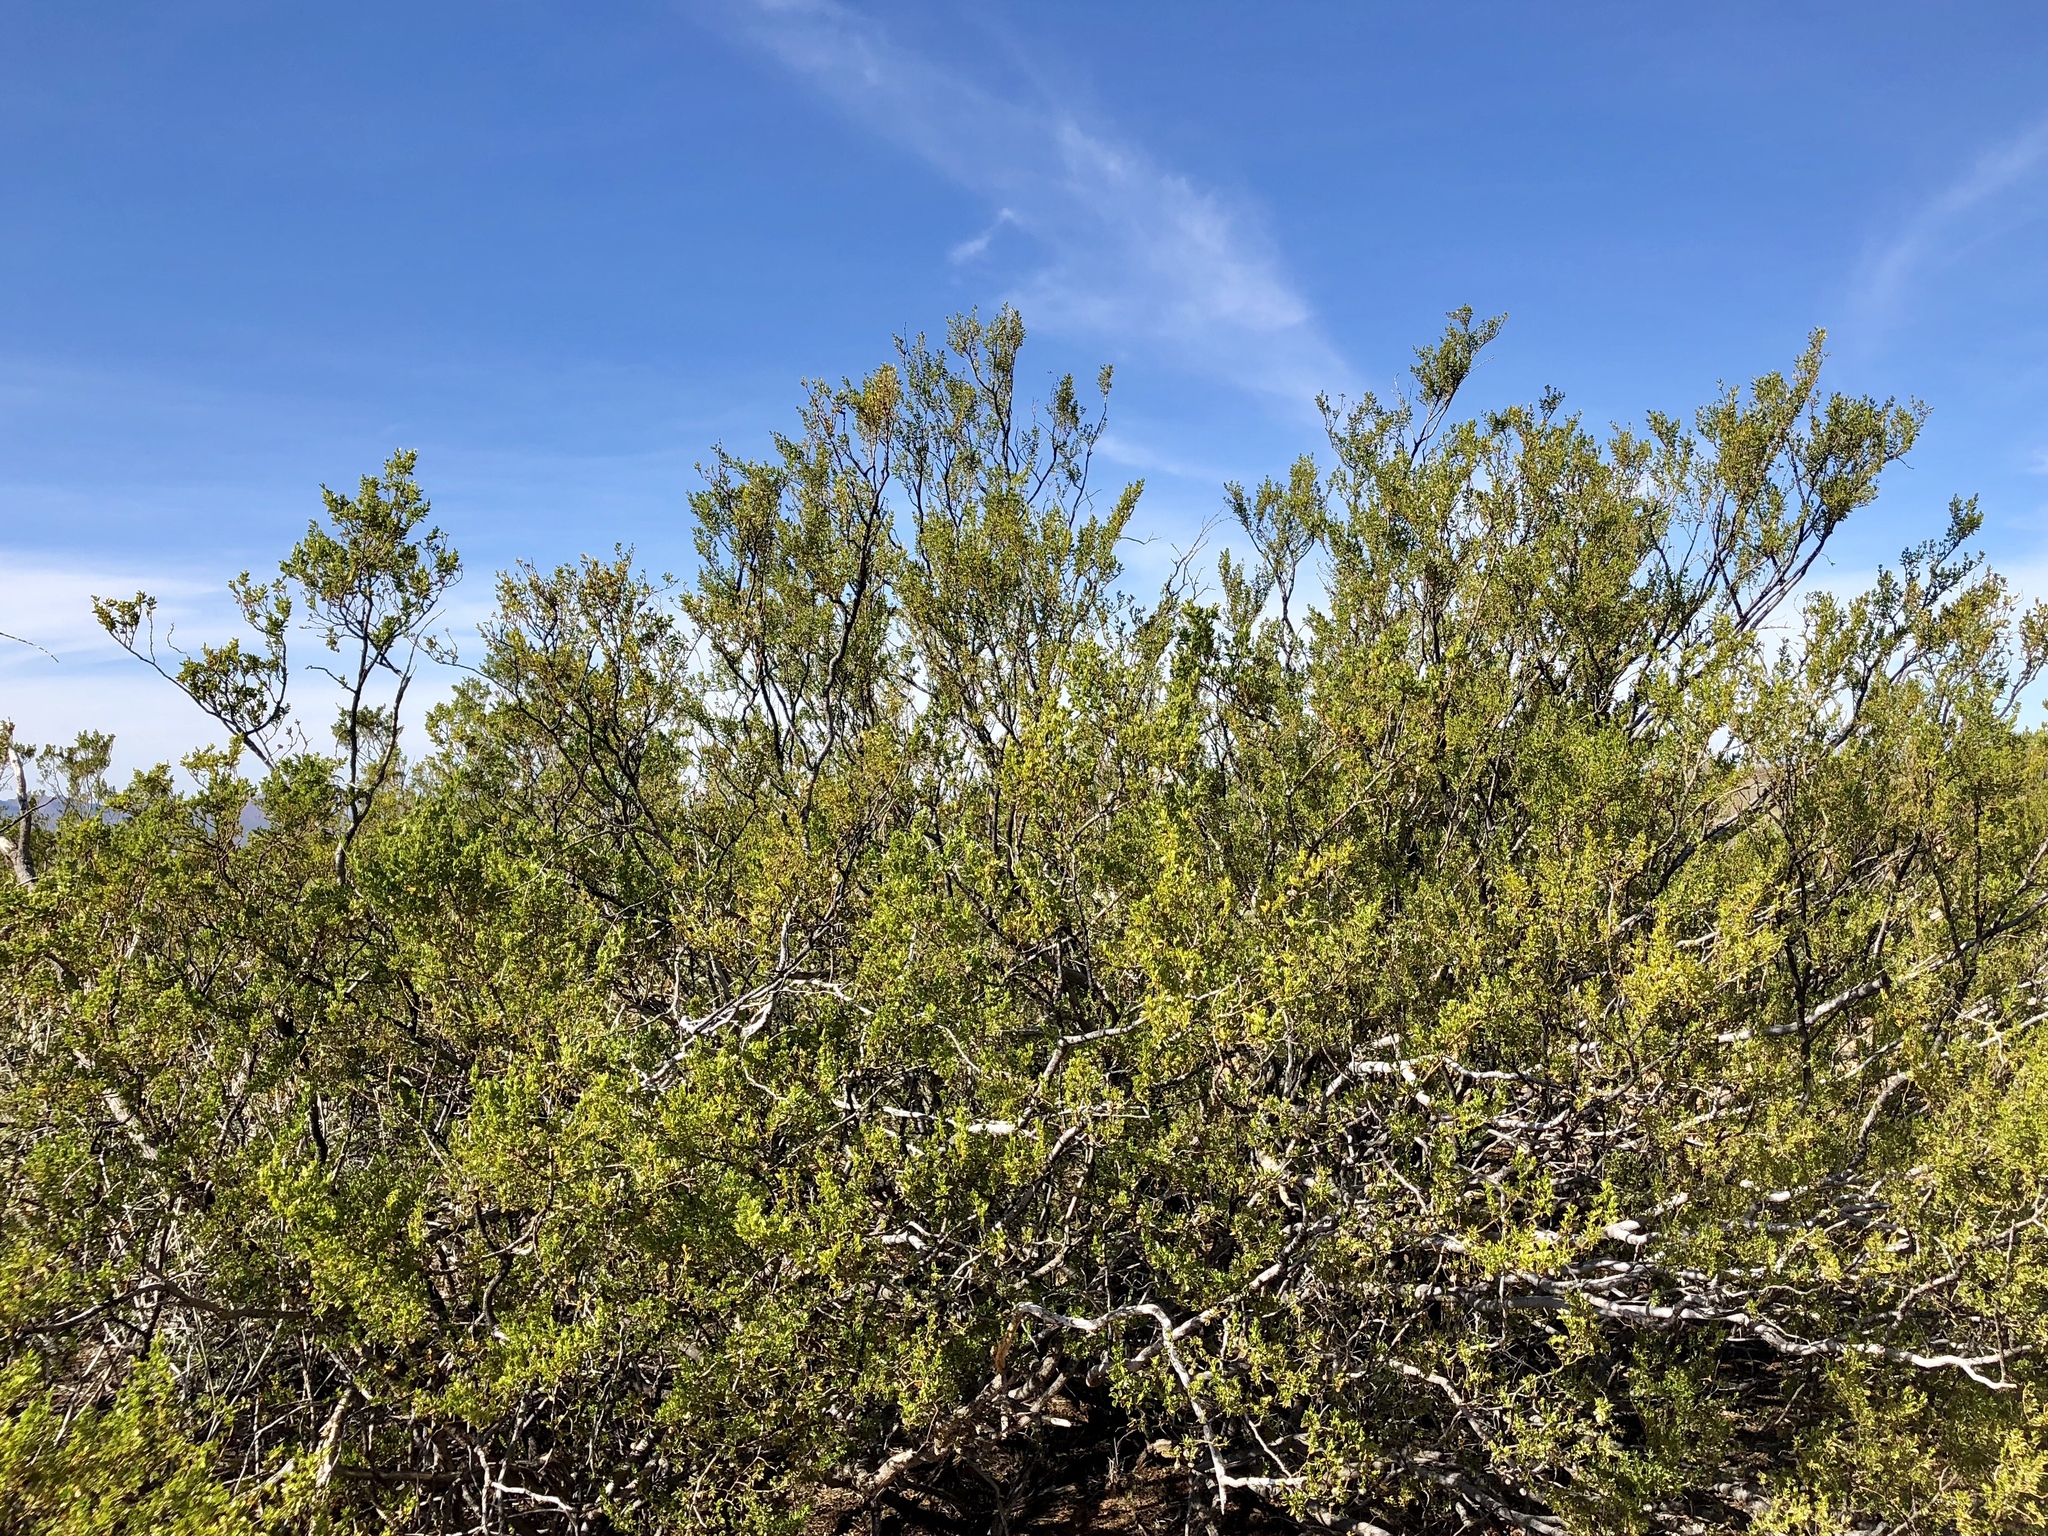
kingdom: Plantae
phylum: Tracheophyta
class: Magnoliopsida
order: Zygophyllales
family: Zygophyllaceae
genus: Larrea
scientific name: Larrea tridentata
